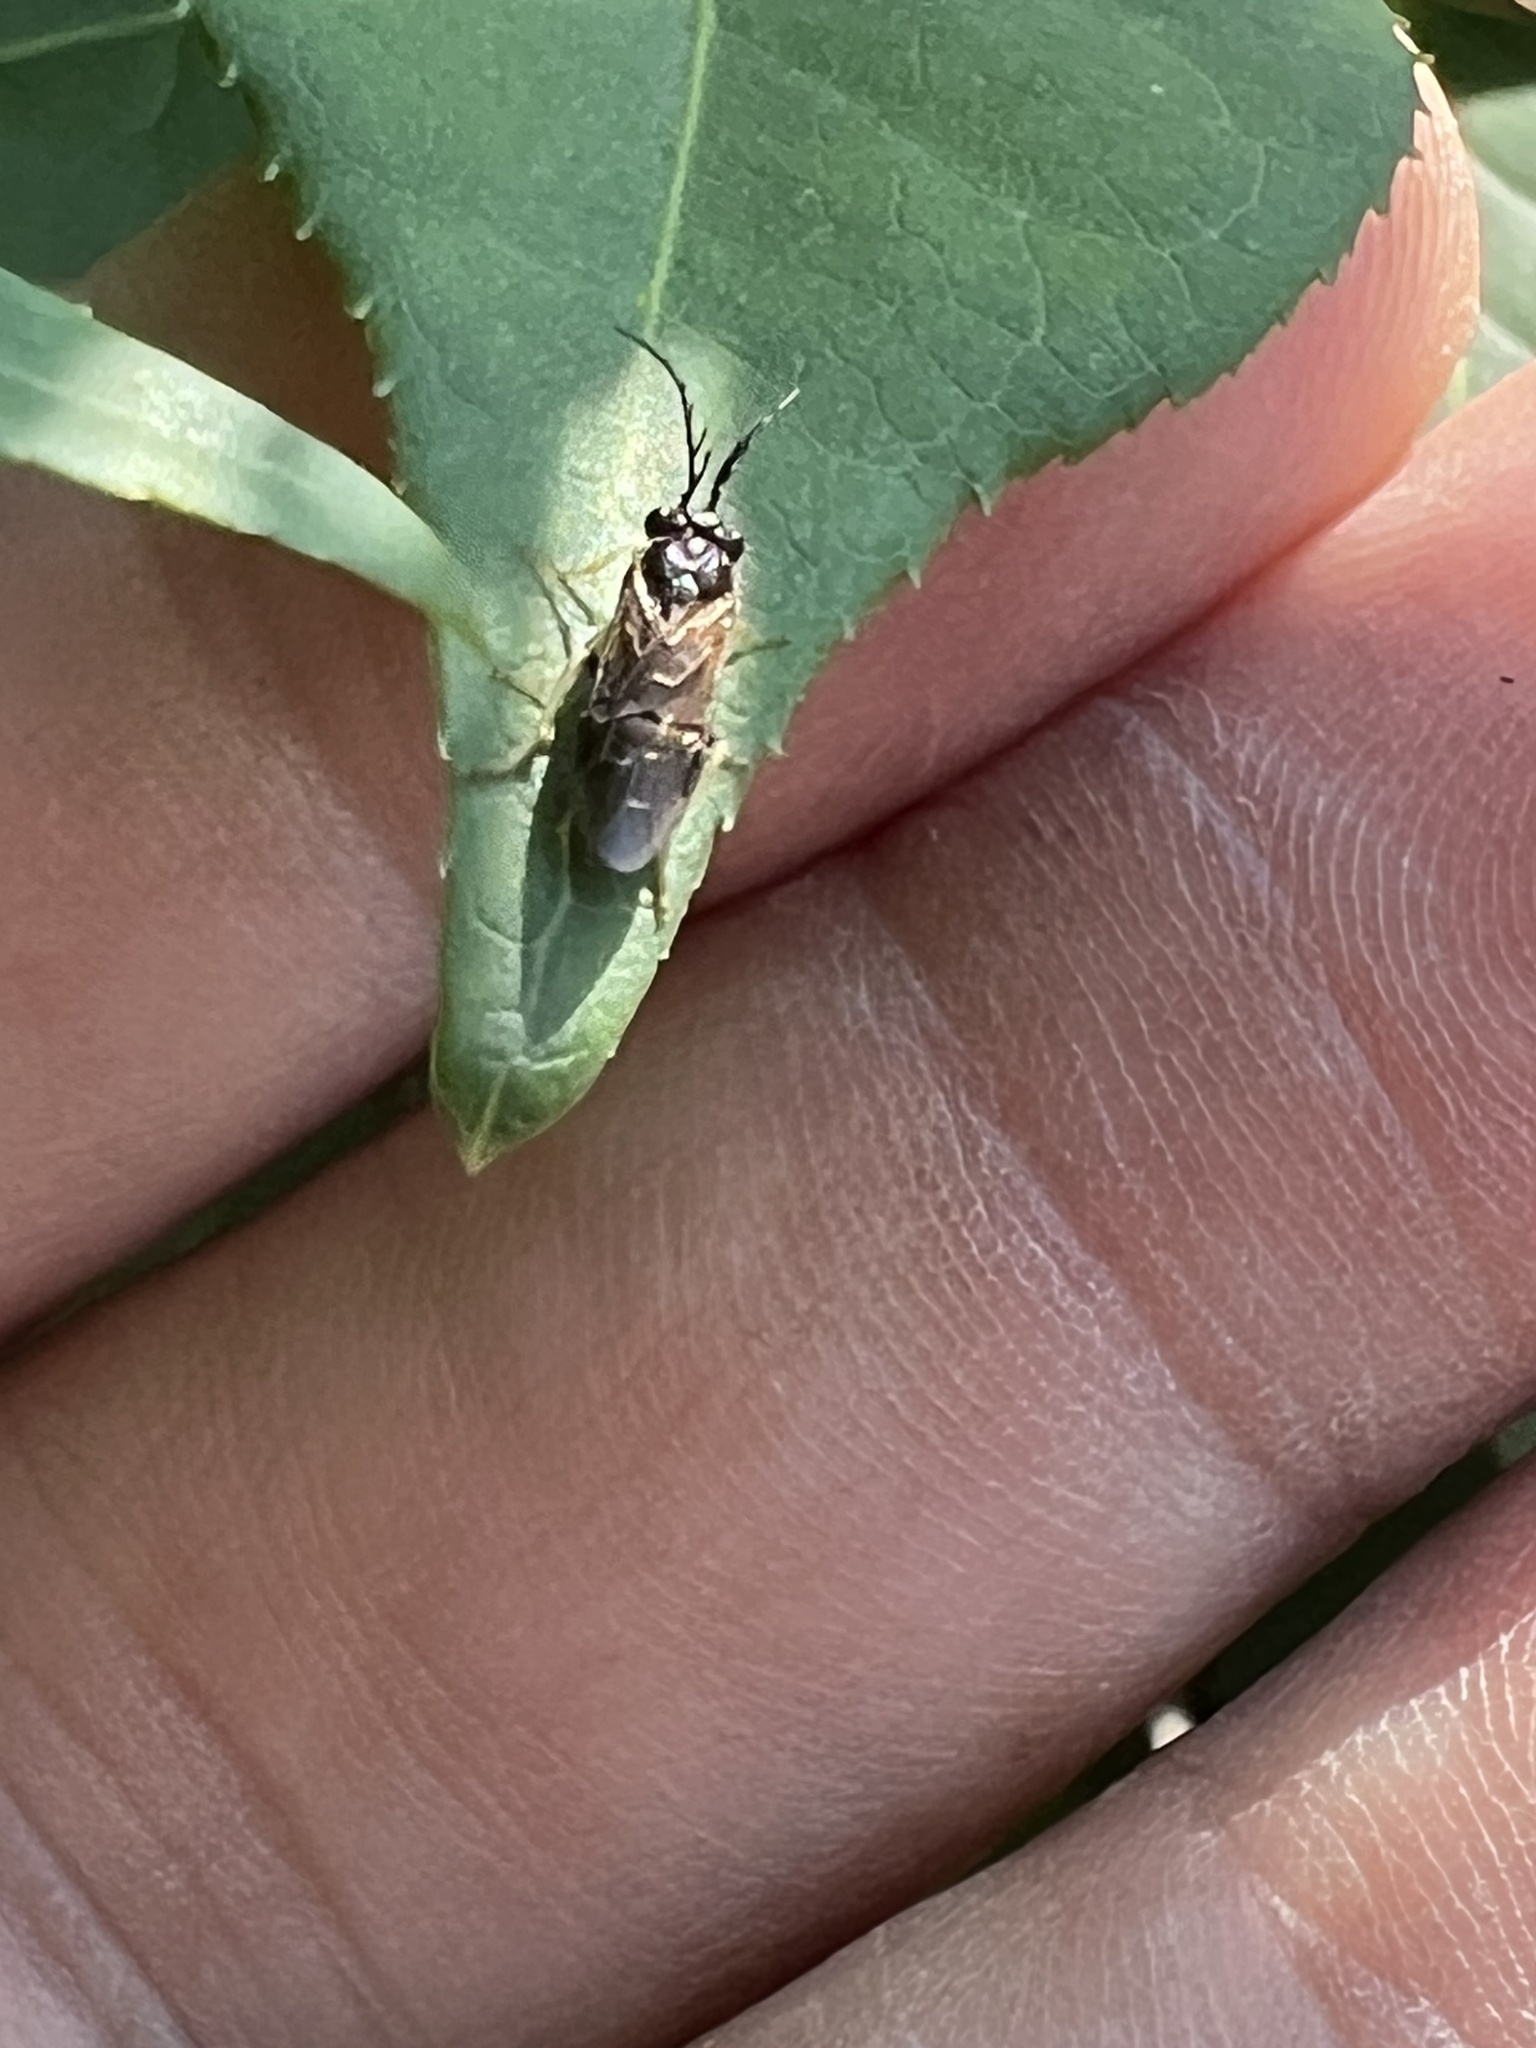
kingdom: Animalia
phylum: Arthropoda
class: Insecta
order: Hymenoptera
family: Tenthredinidae
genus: Cladius
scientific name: Cladius pectinicornis
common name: Sawfly
